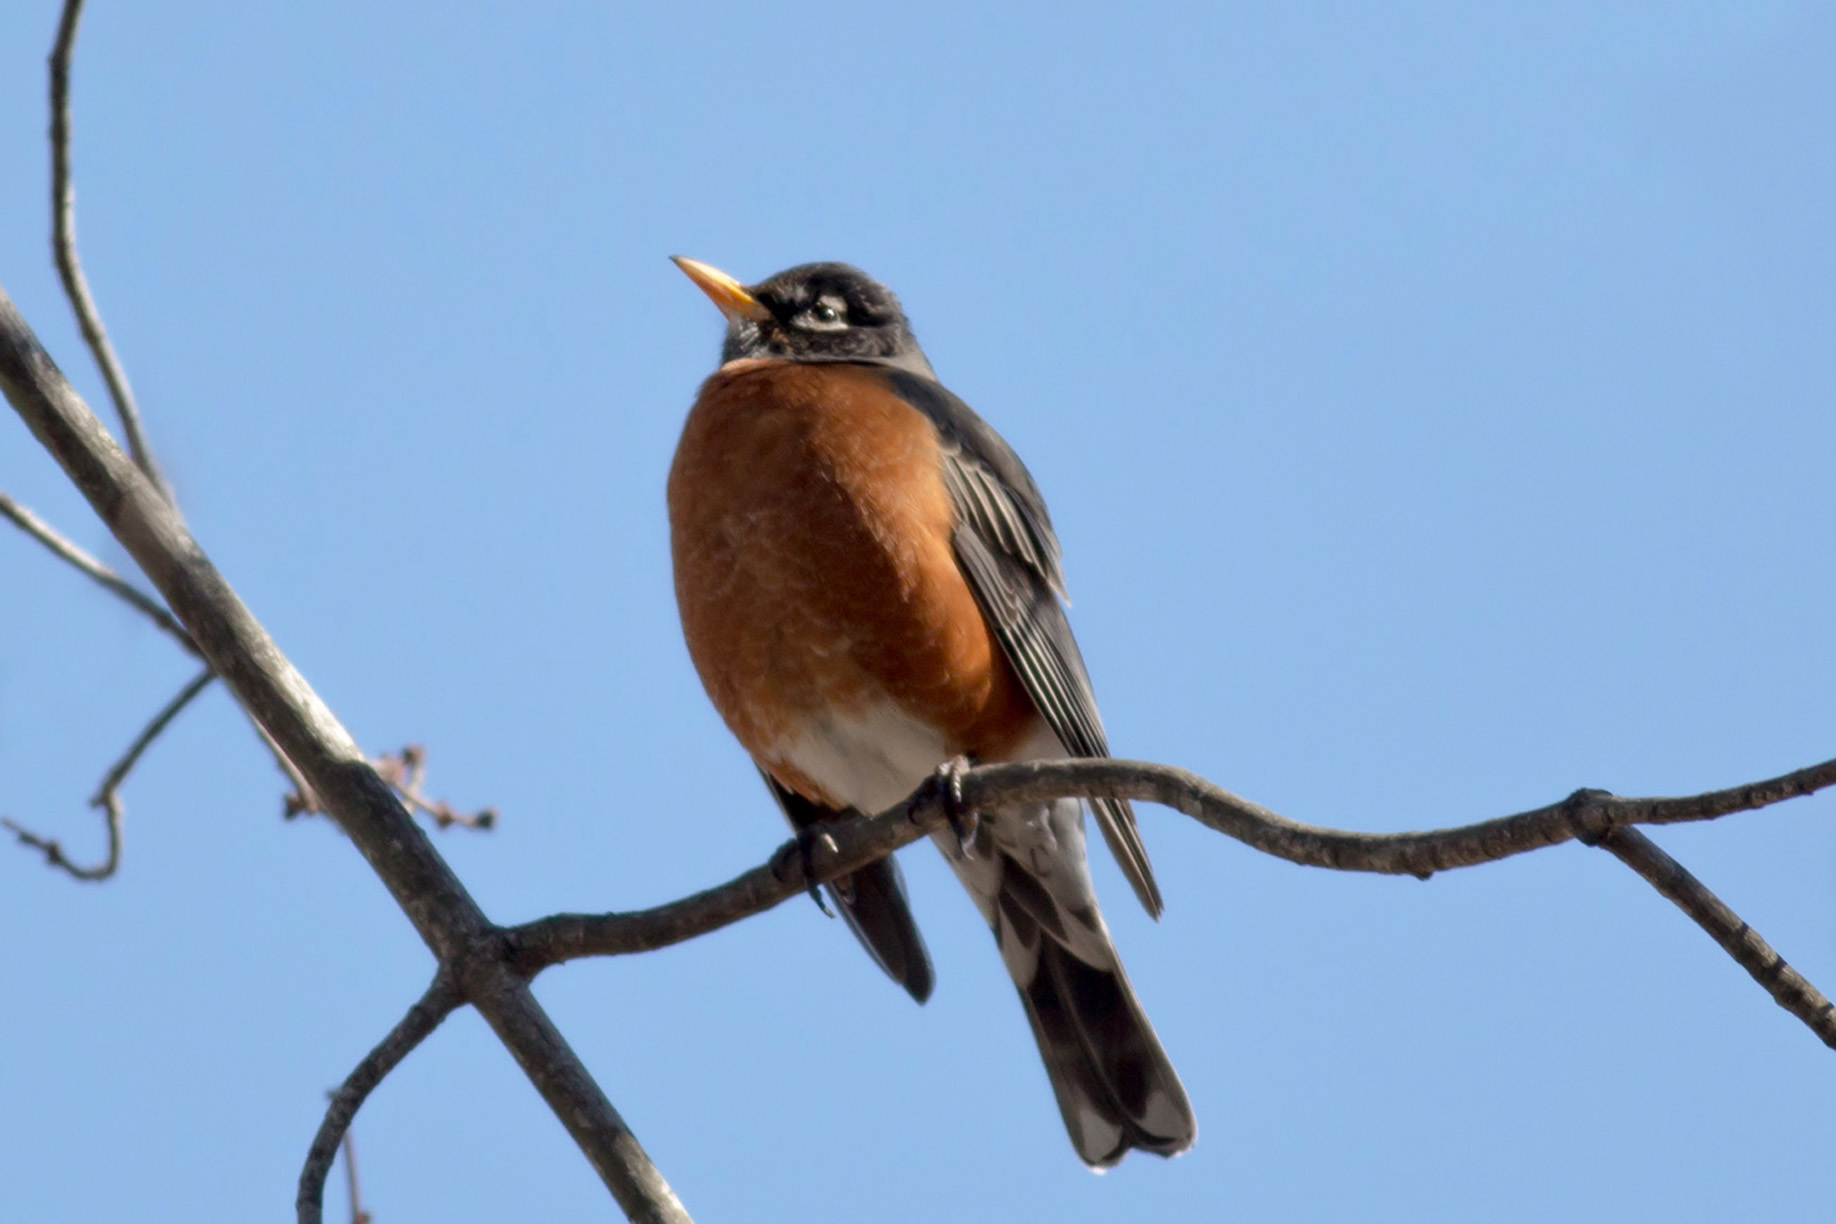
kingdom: Animalia
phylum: Chordata
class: Aves
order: Passeriformes
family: Turdidae
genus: Turdus
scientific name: Turdus migratorius
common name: American robin
